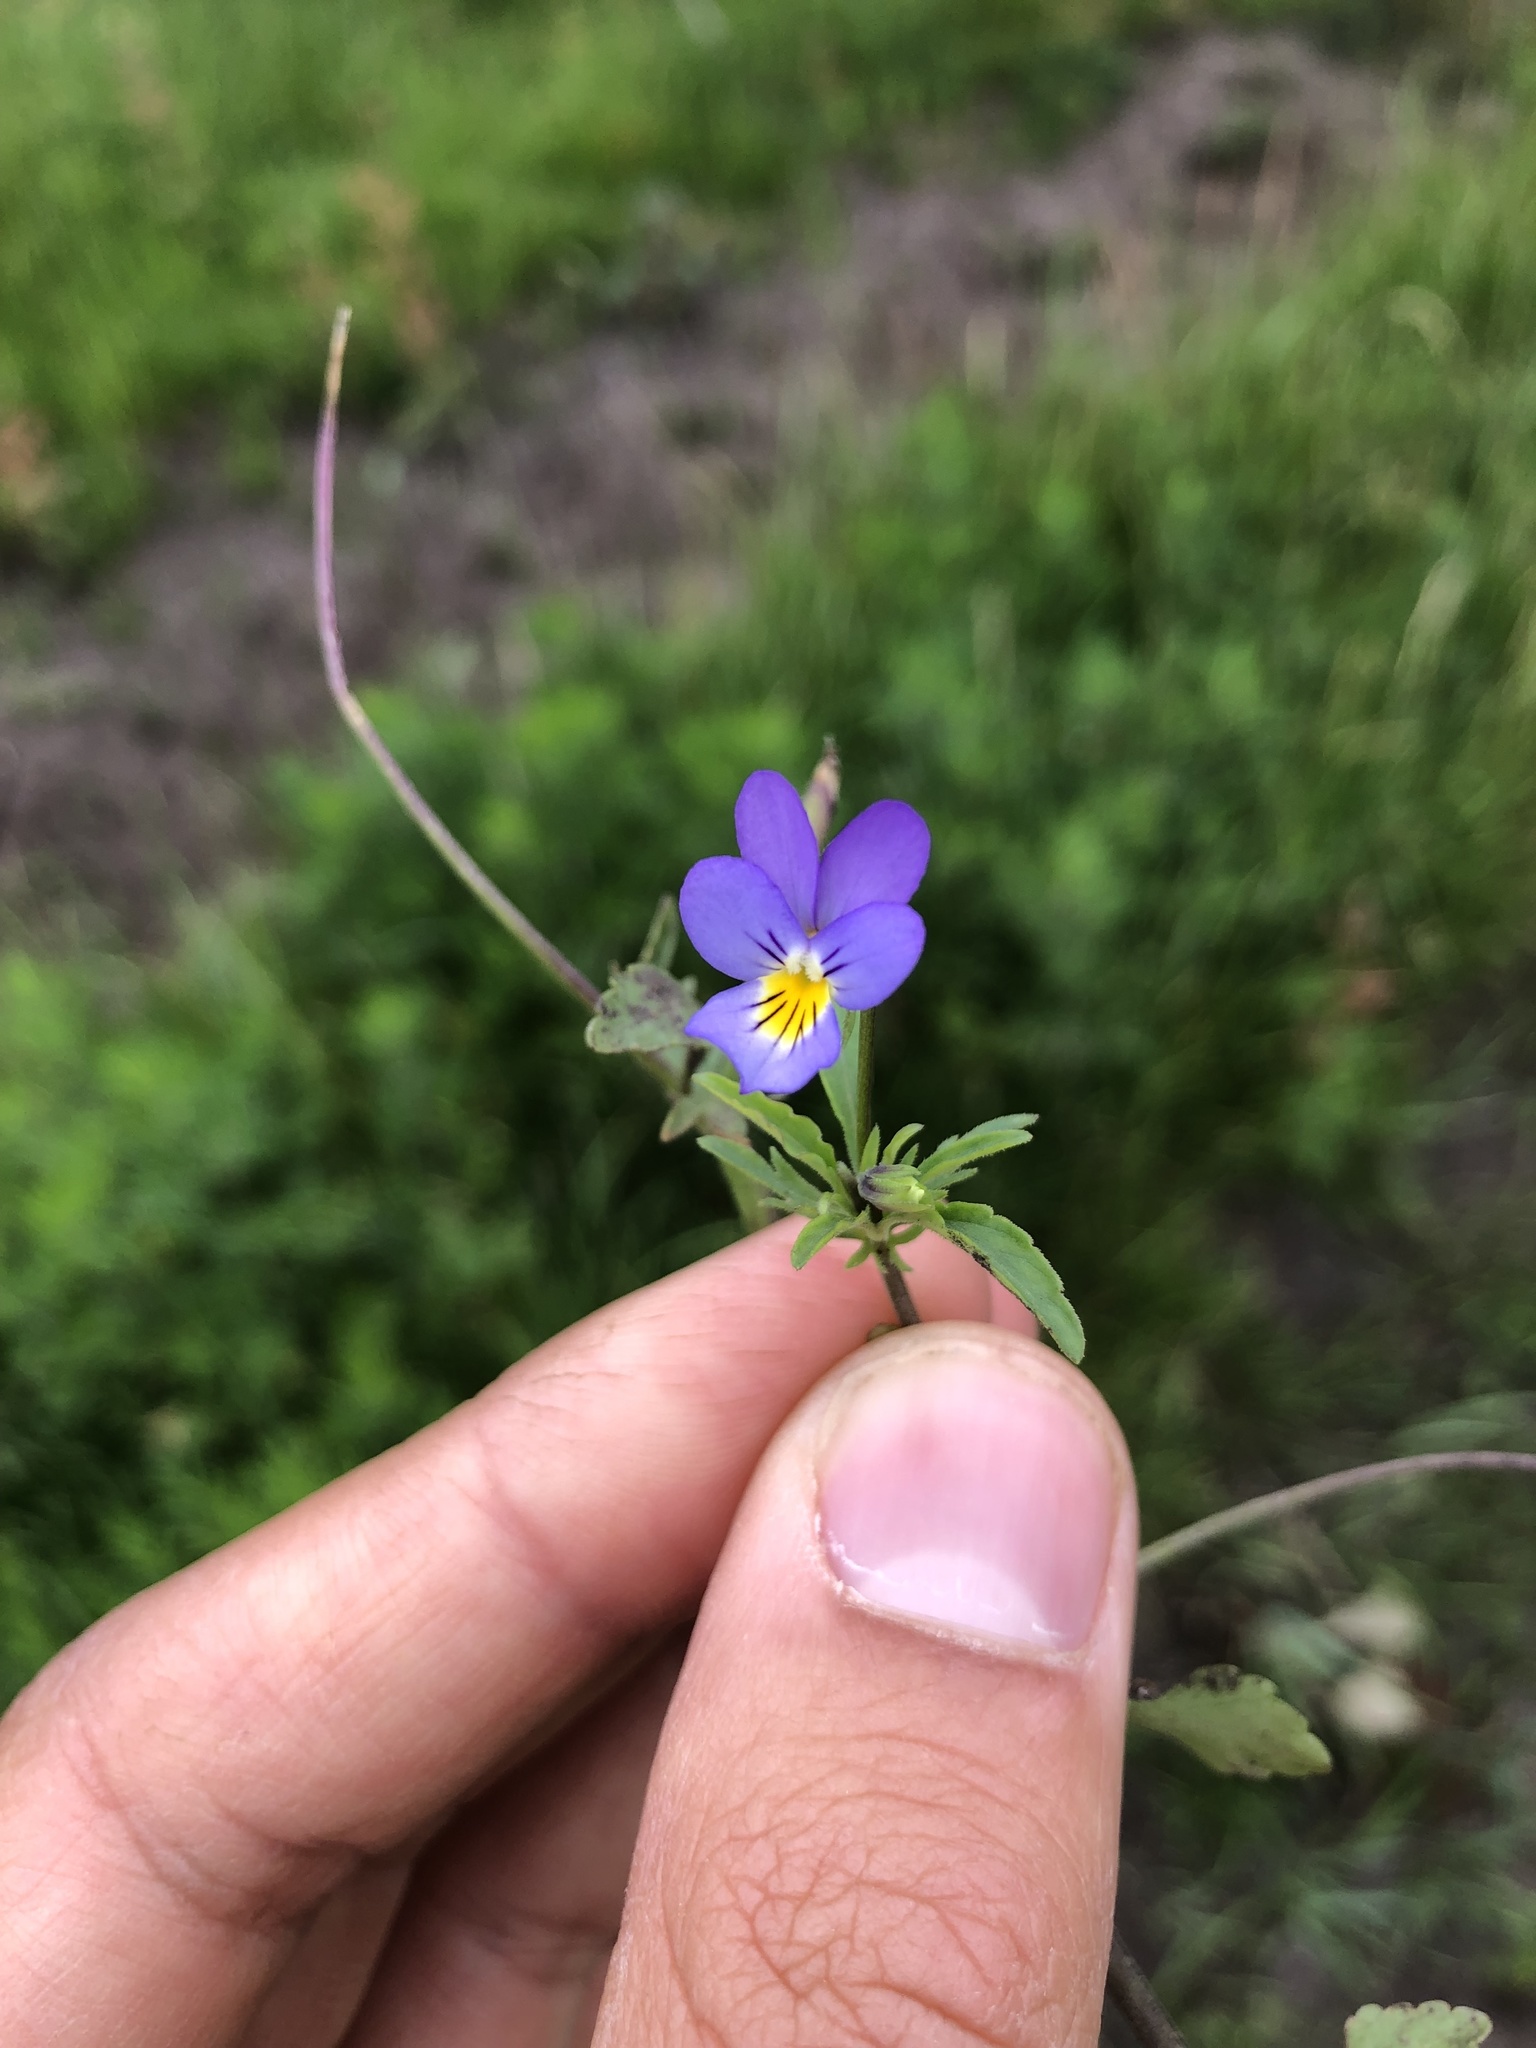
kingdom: Plantae
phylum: Tracheophyta
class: Magnoliopsida
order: Malpighiales
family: Violaceae
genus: Viola
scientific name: Viola tricolor
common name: Pansy
